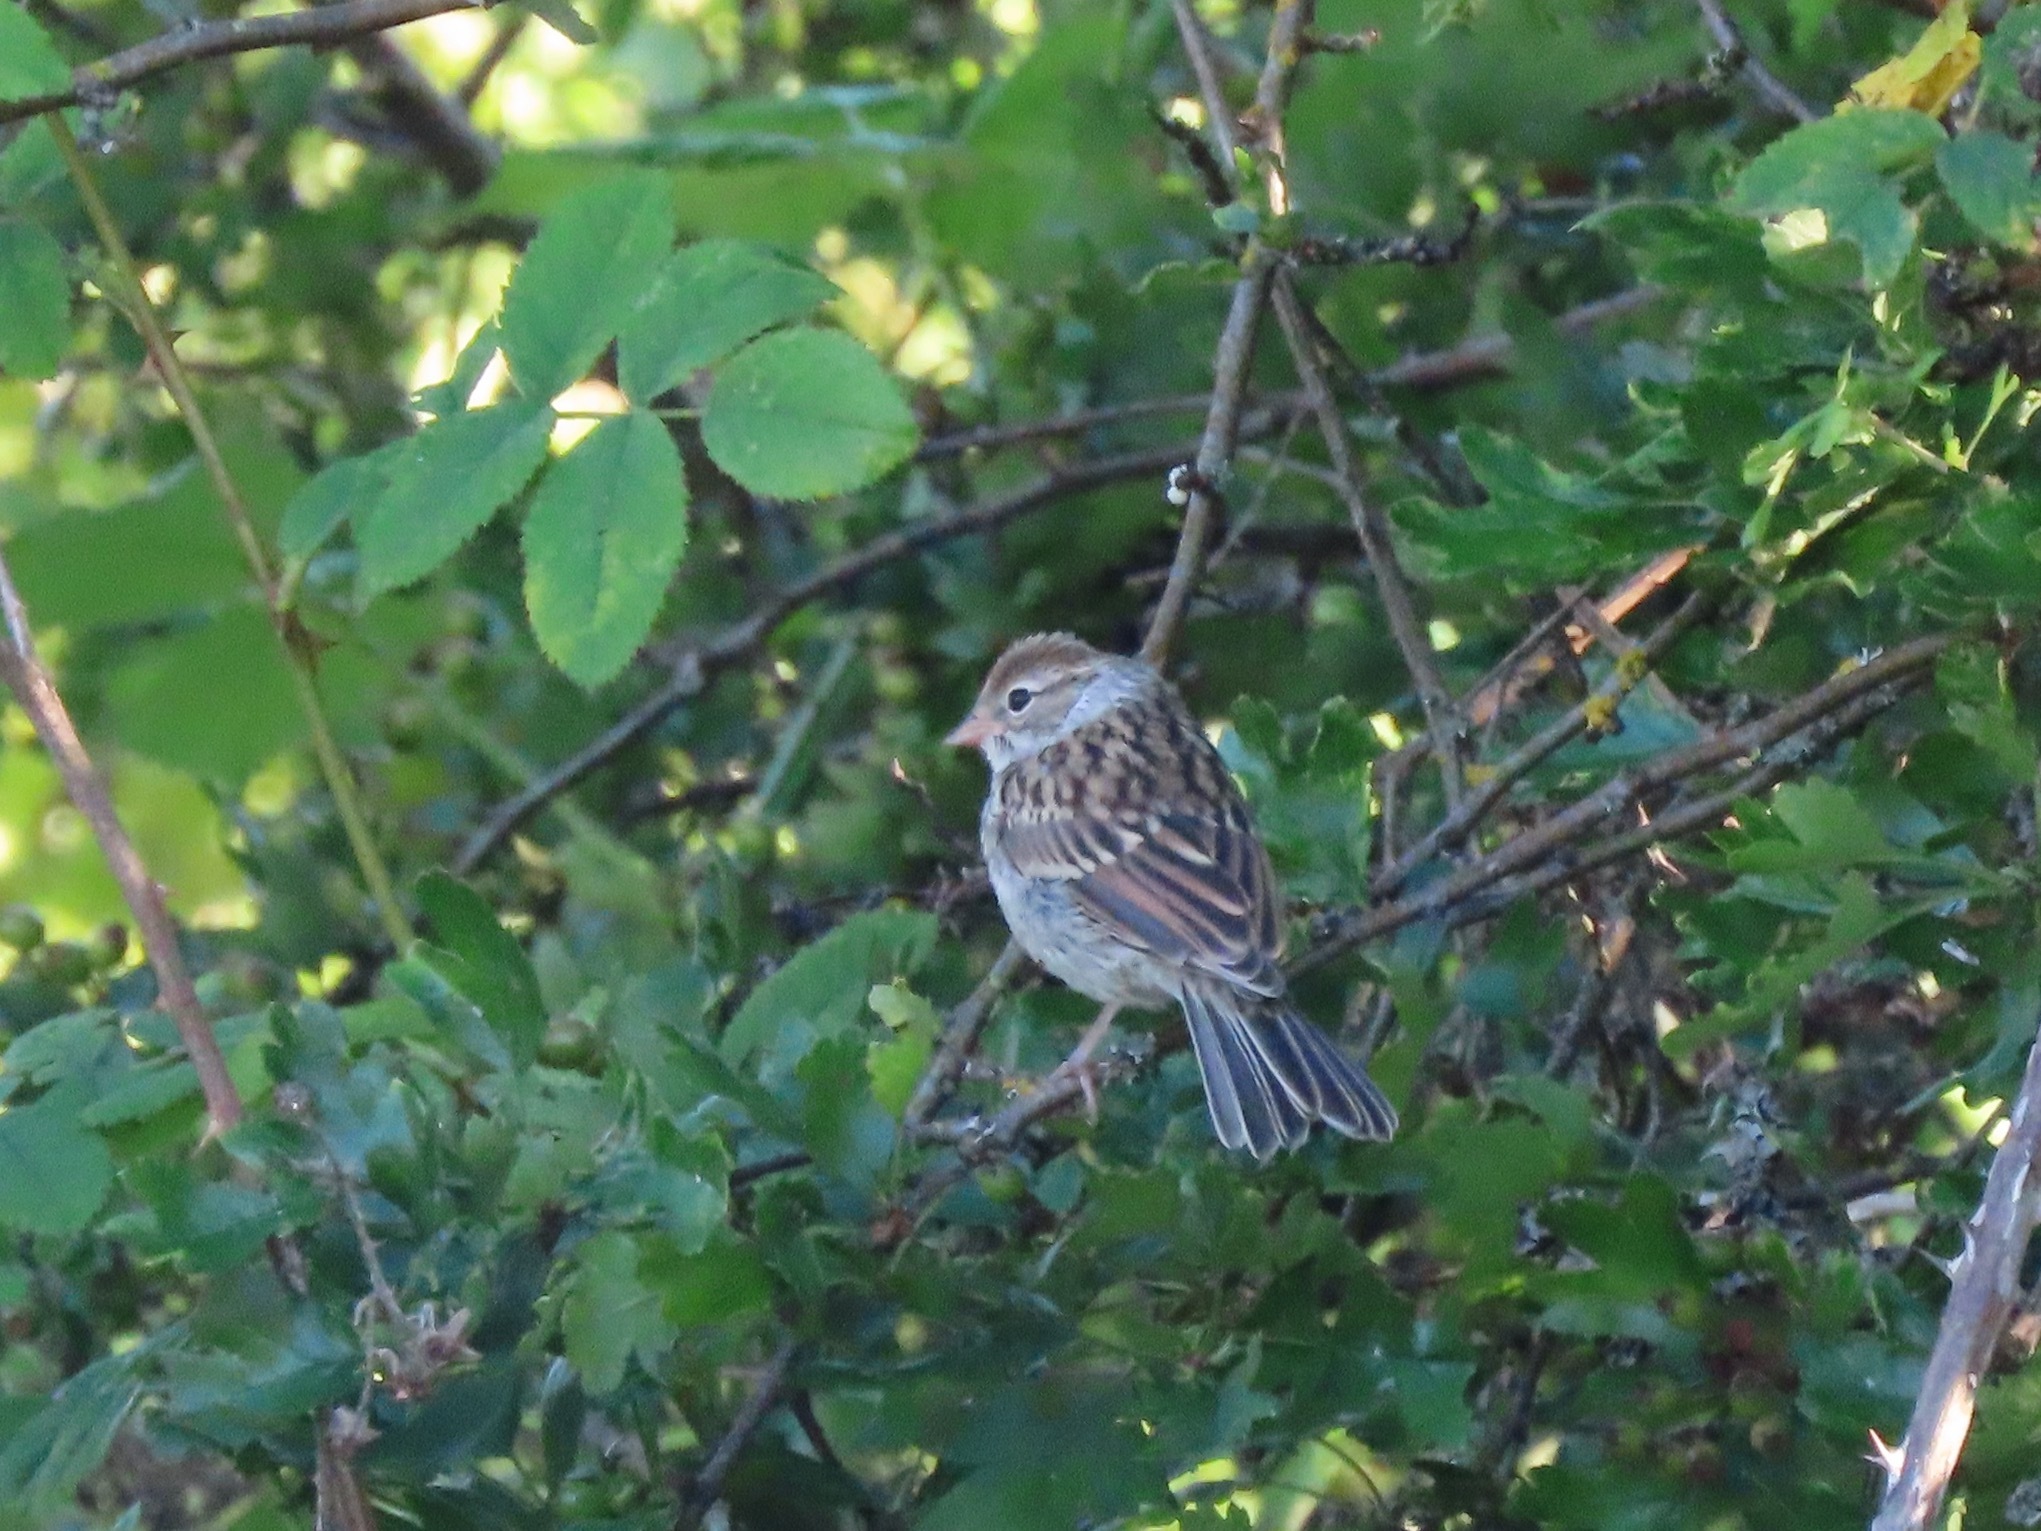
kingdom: Animalia
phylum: Chordata
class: Aves
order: Passeriformes
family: Passerellidae
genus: Spizella
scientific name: Spizella passerina
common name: Chipping sparrow
